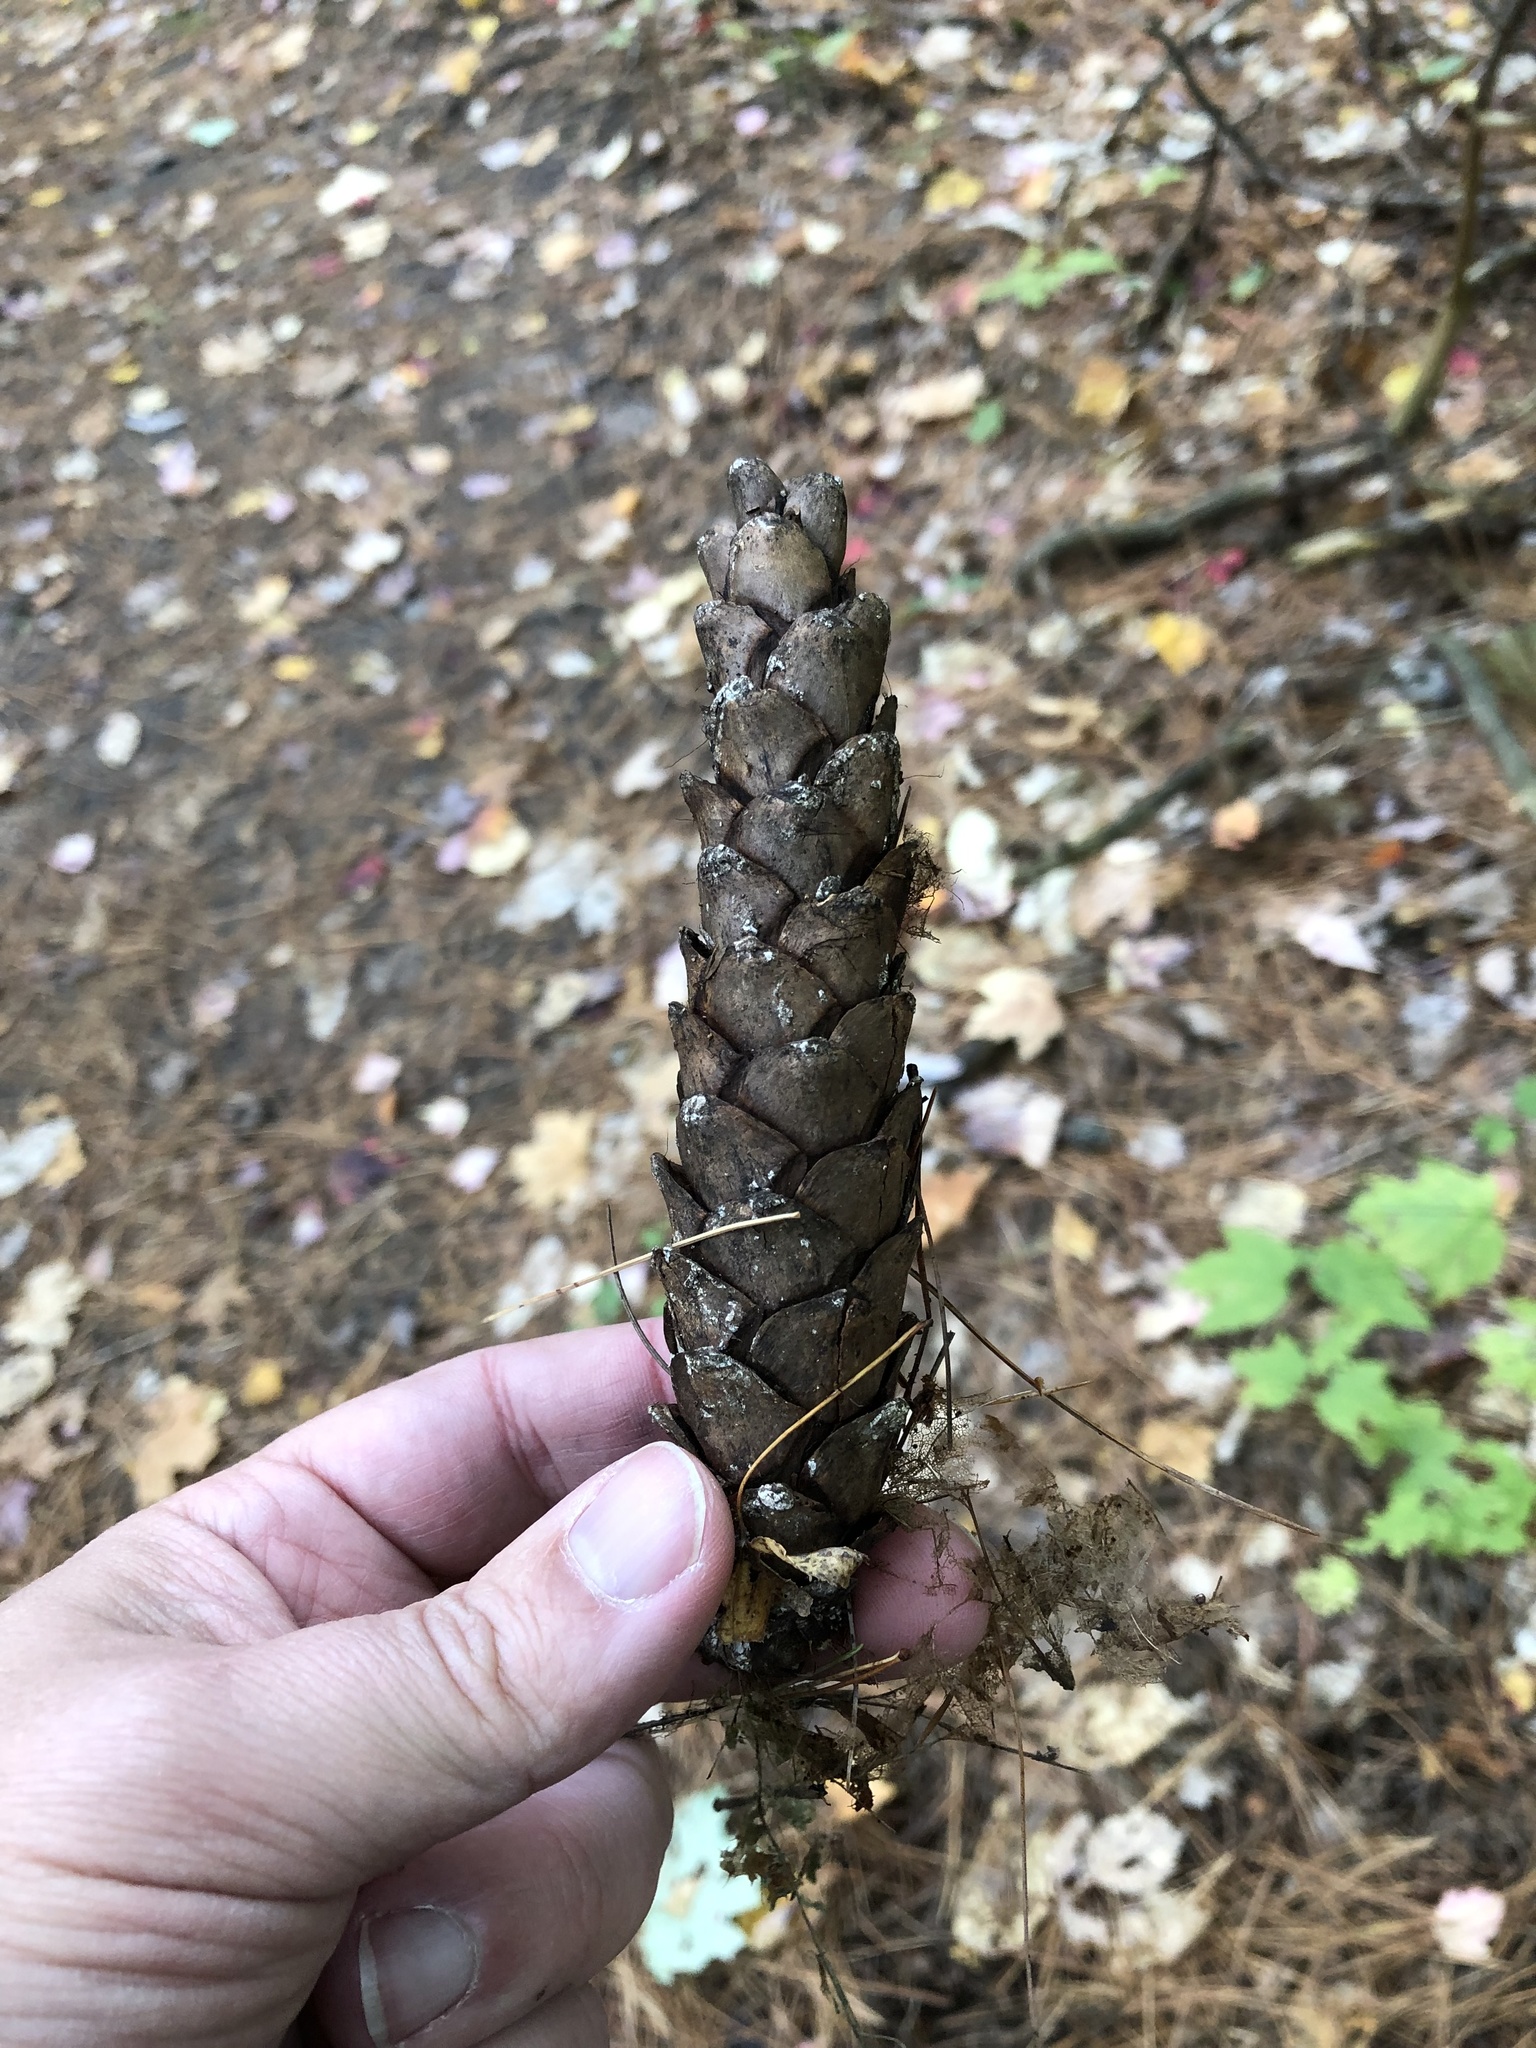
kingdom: Plantae
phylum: Tracheophyta
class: Pinopsida
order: Pinales
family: Pinaceae
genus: Pinus
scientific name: Pinus strobus
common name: Weymouth pine
